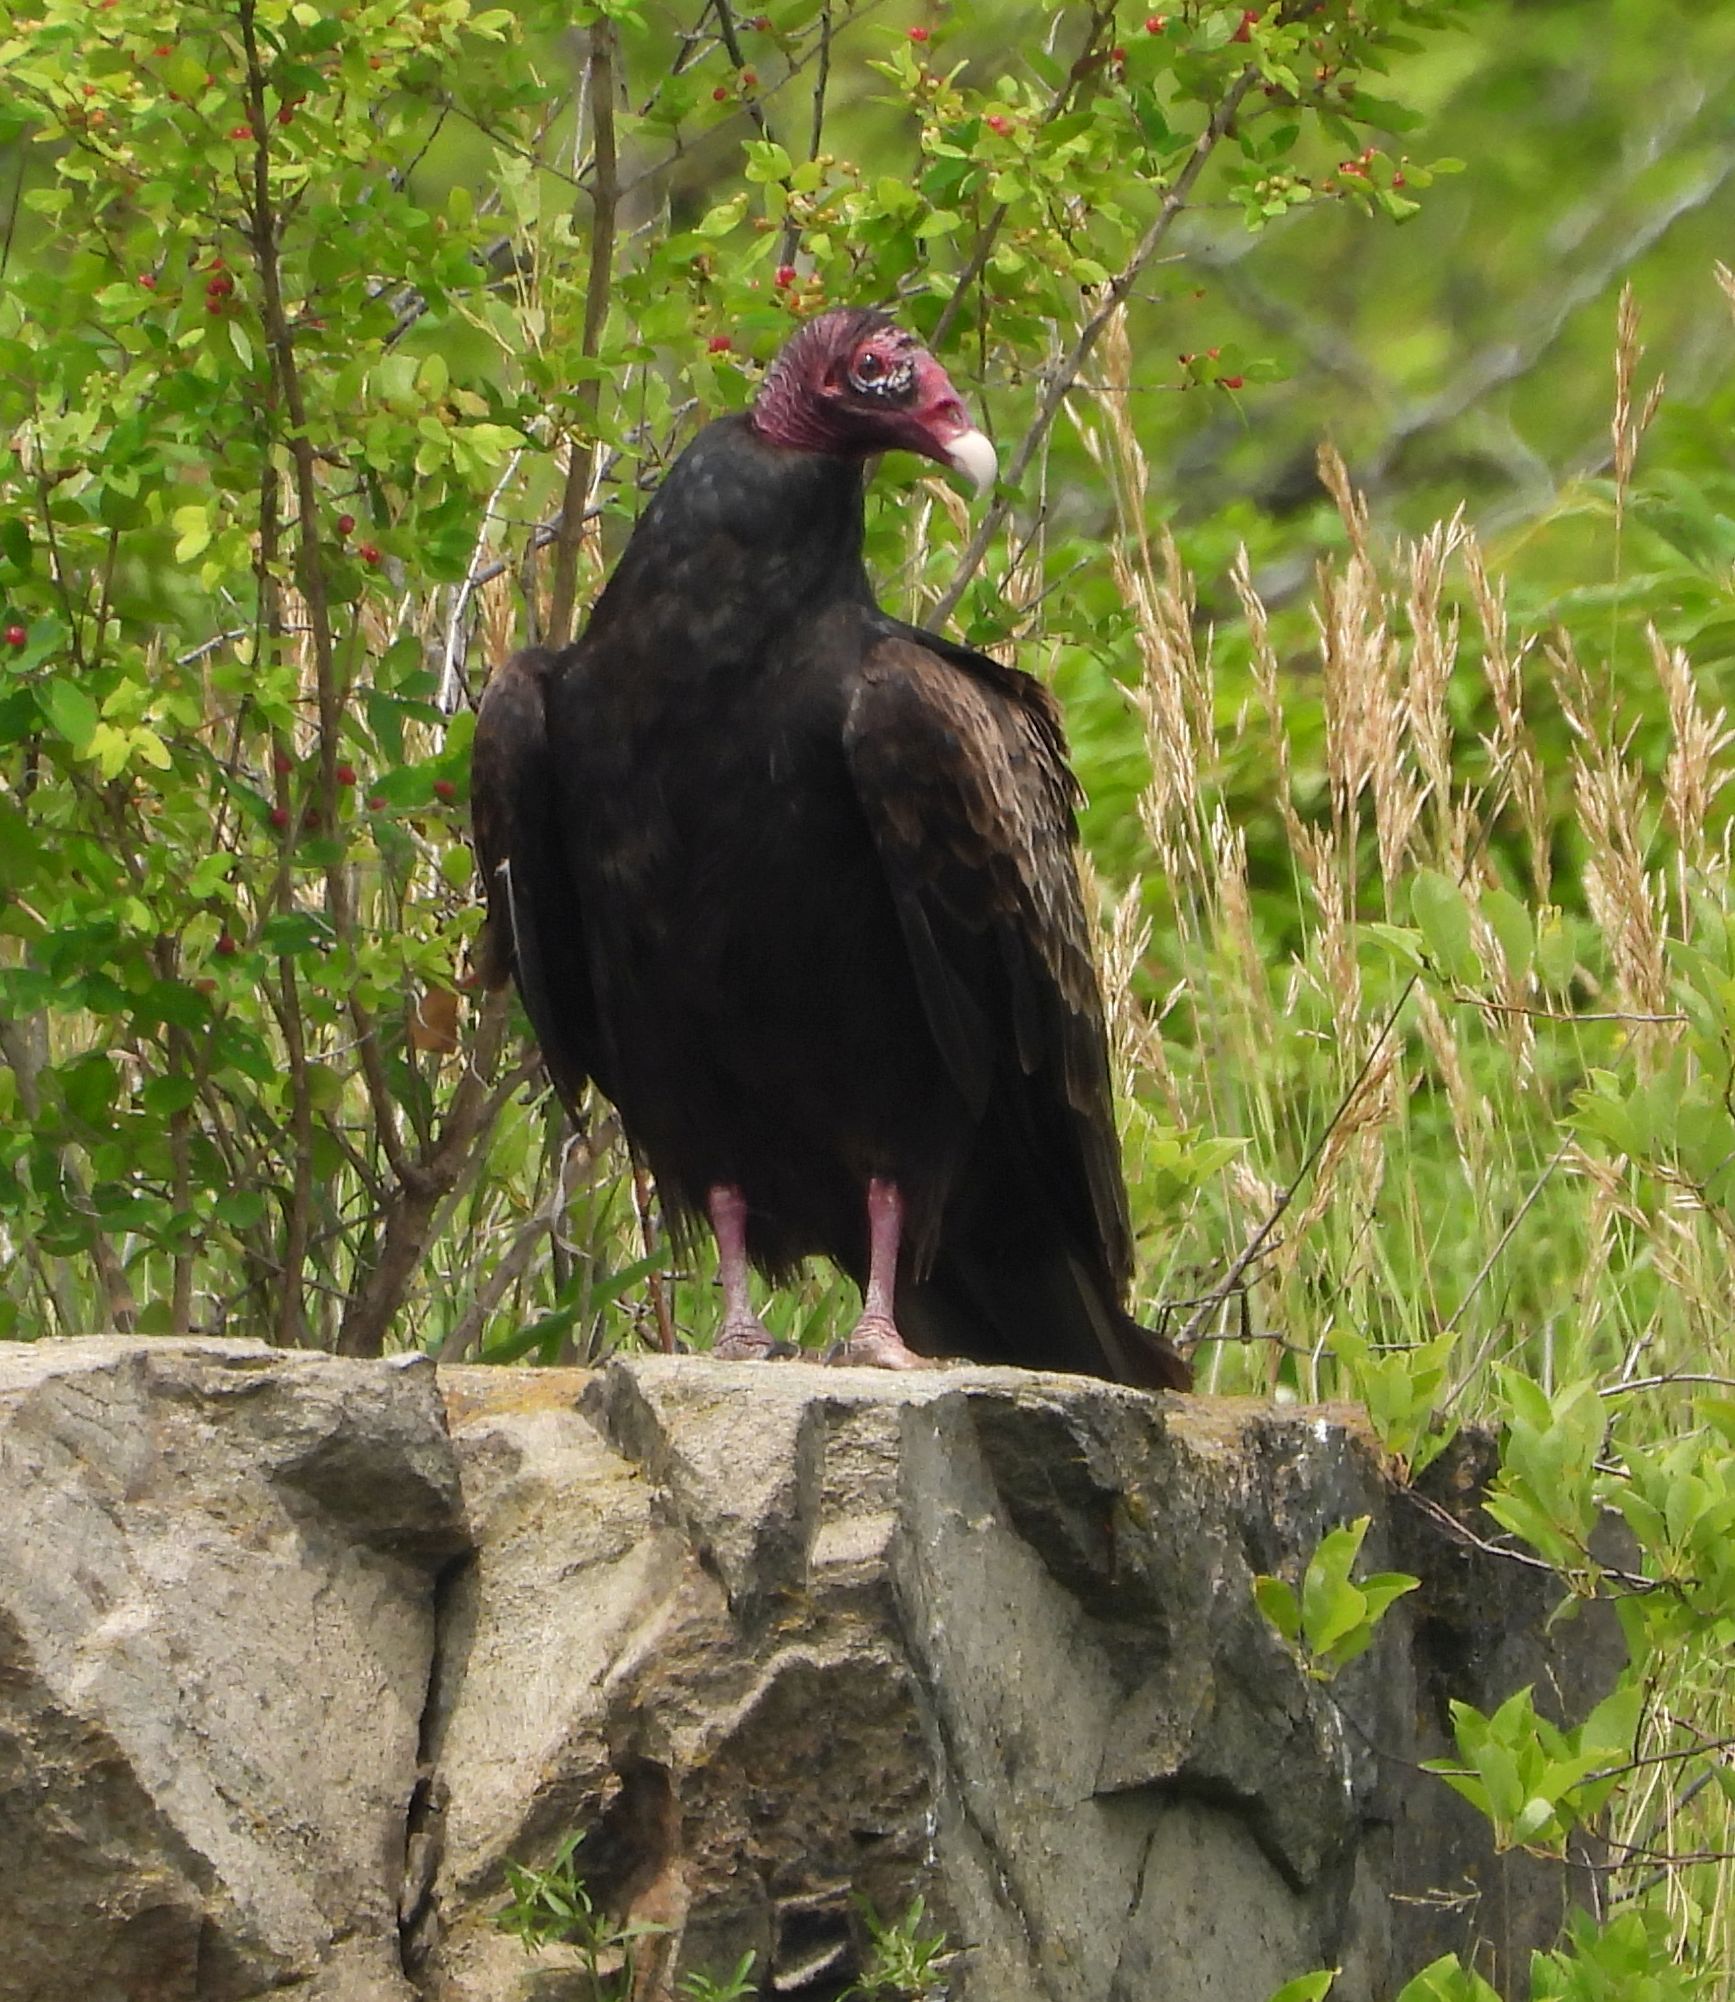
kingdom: Animalia
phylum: Chordata
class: Aves
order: Accipitriformes
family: Cathartidae
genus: Cathartes
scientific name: Cathartes aura
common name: Turkey vulture
